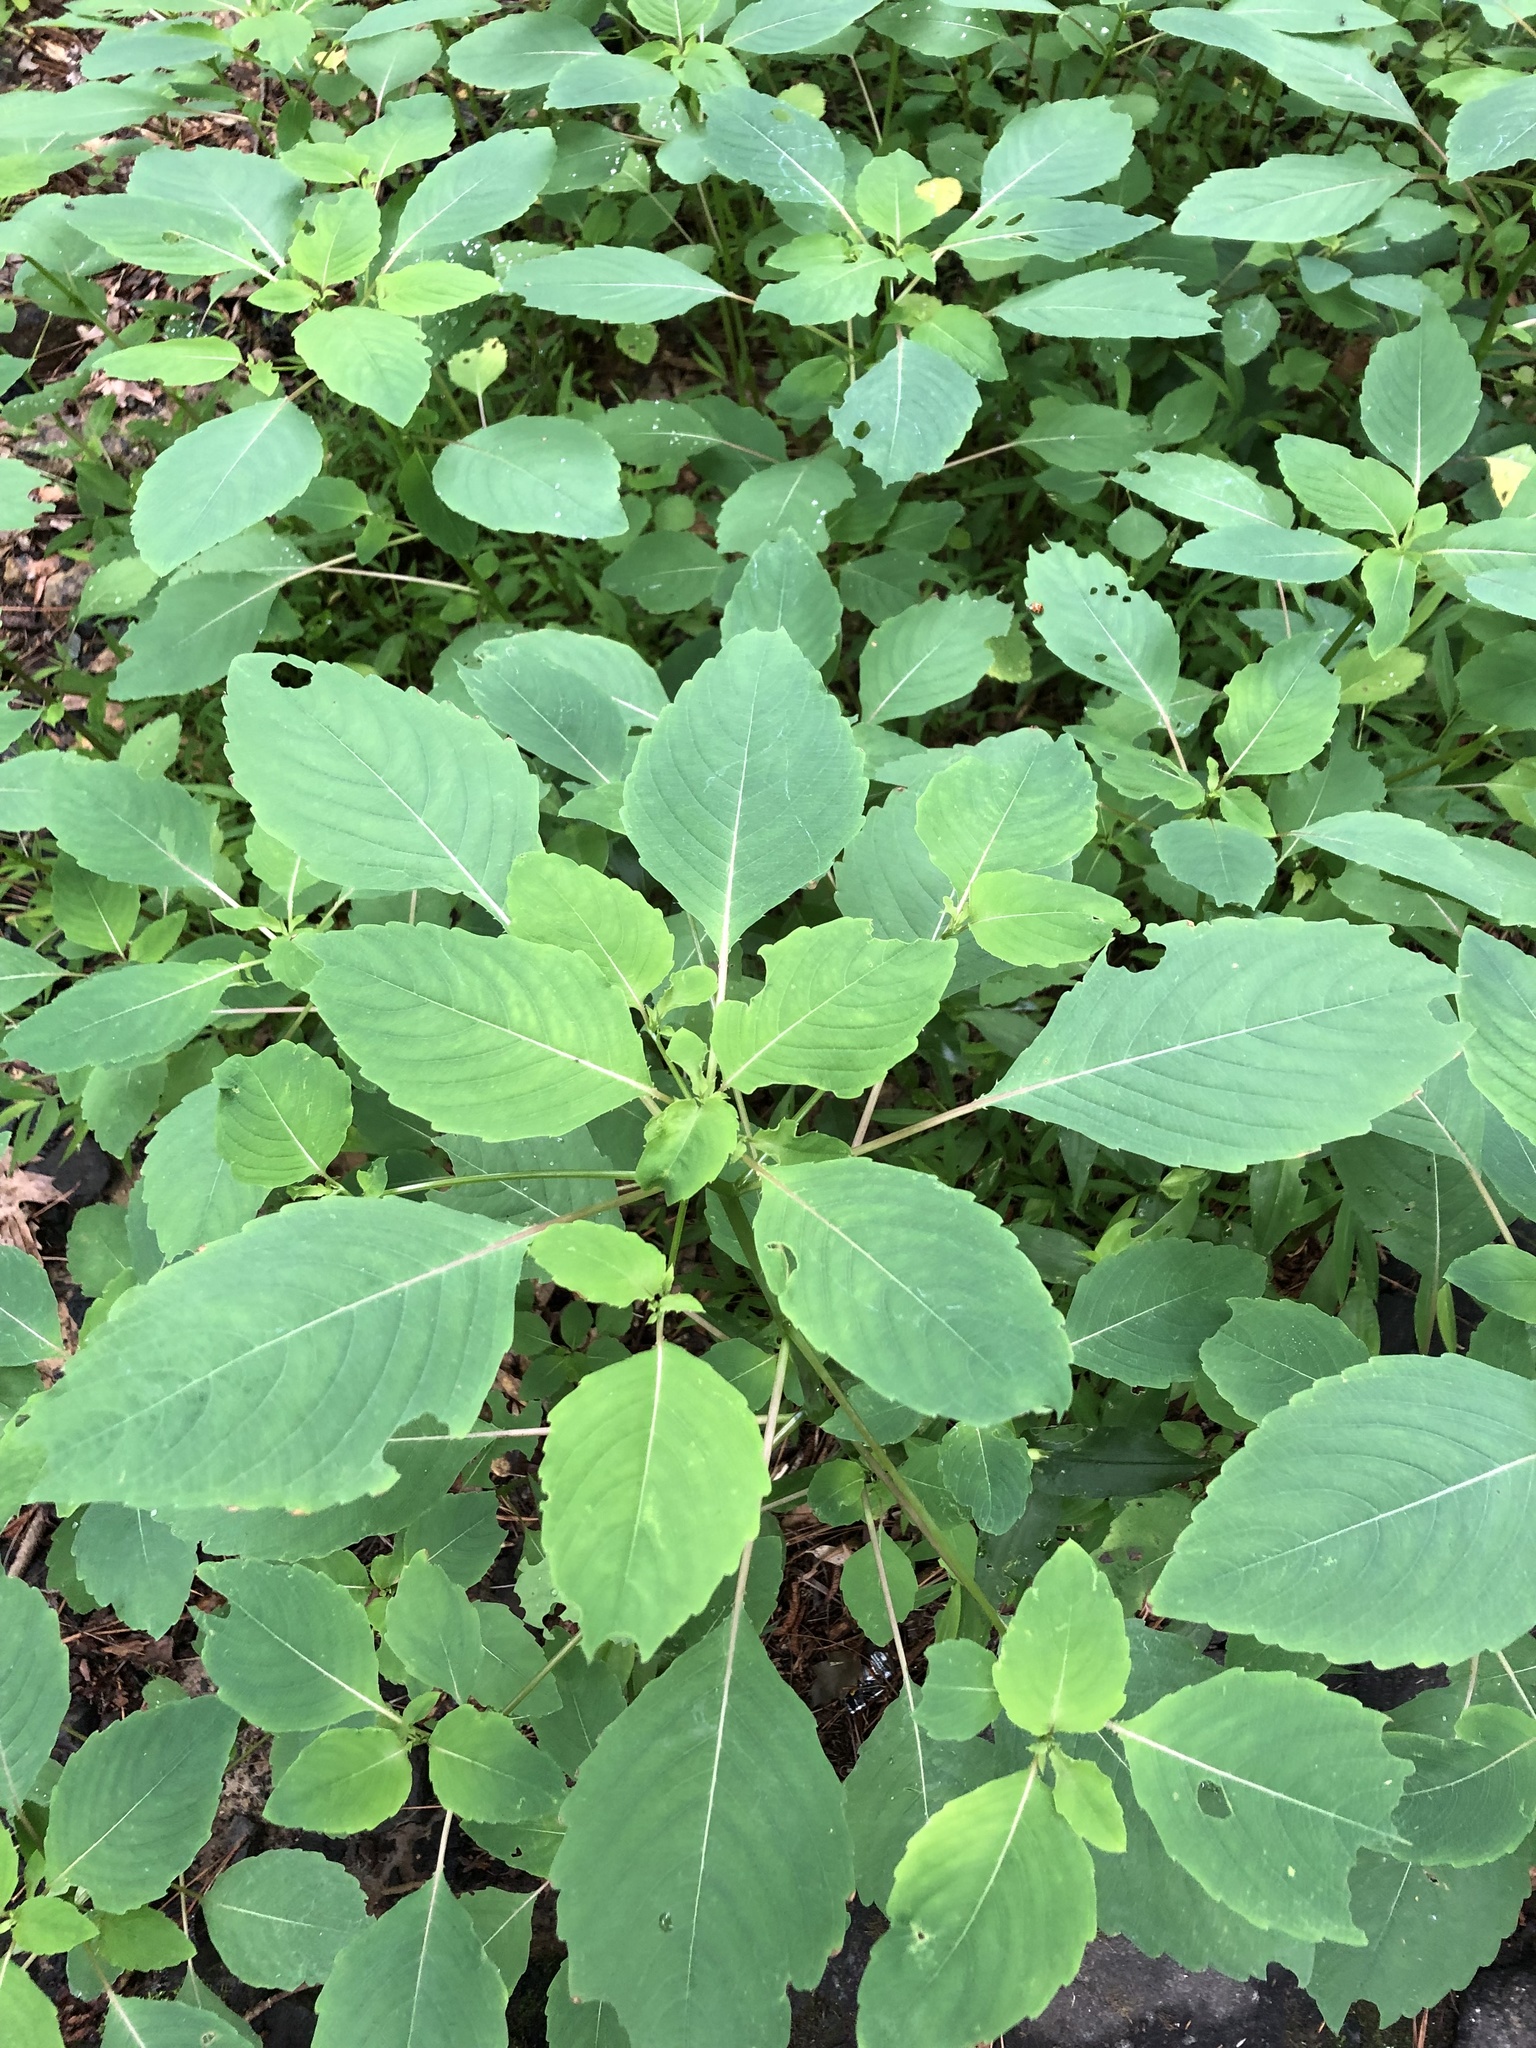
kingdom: Plantae
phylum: Tracheophyta
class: Magnoliopsida
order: Ericales
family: Balsaminaceae
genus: Impatiens
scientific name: Impatiens capensis
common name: Orange balsam
